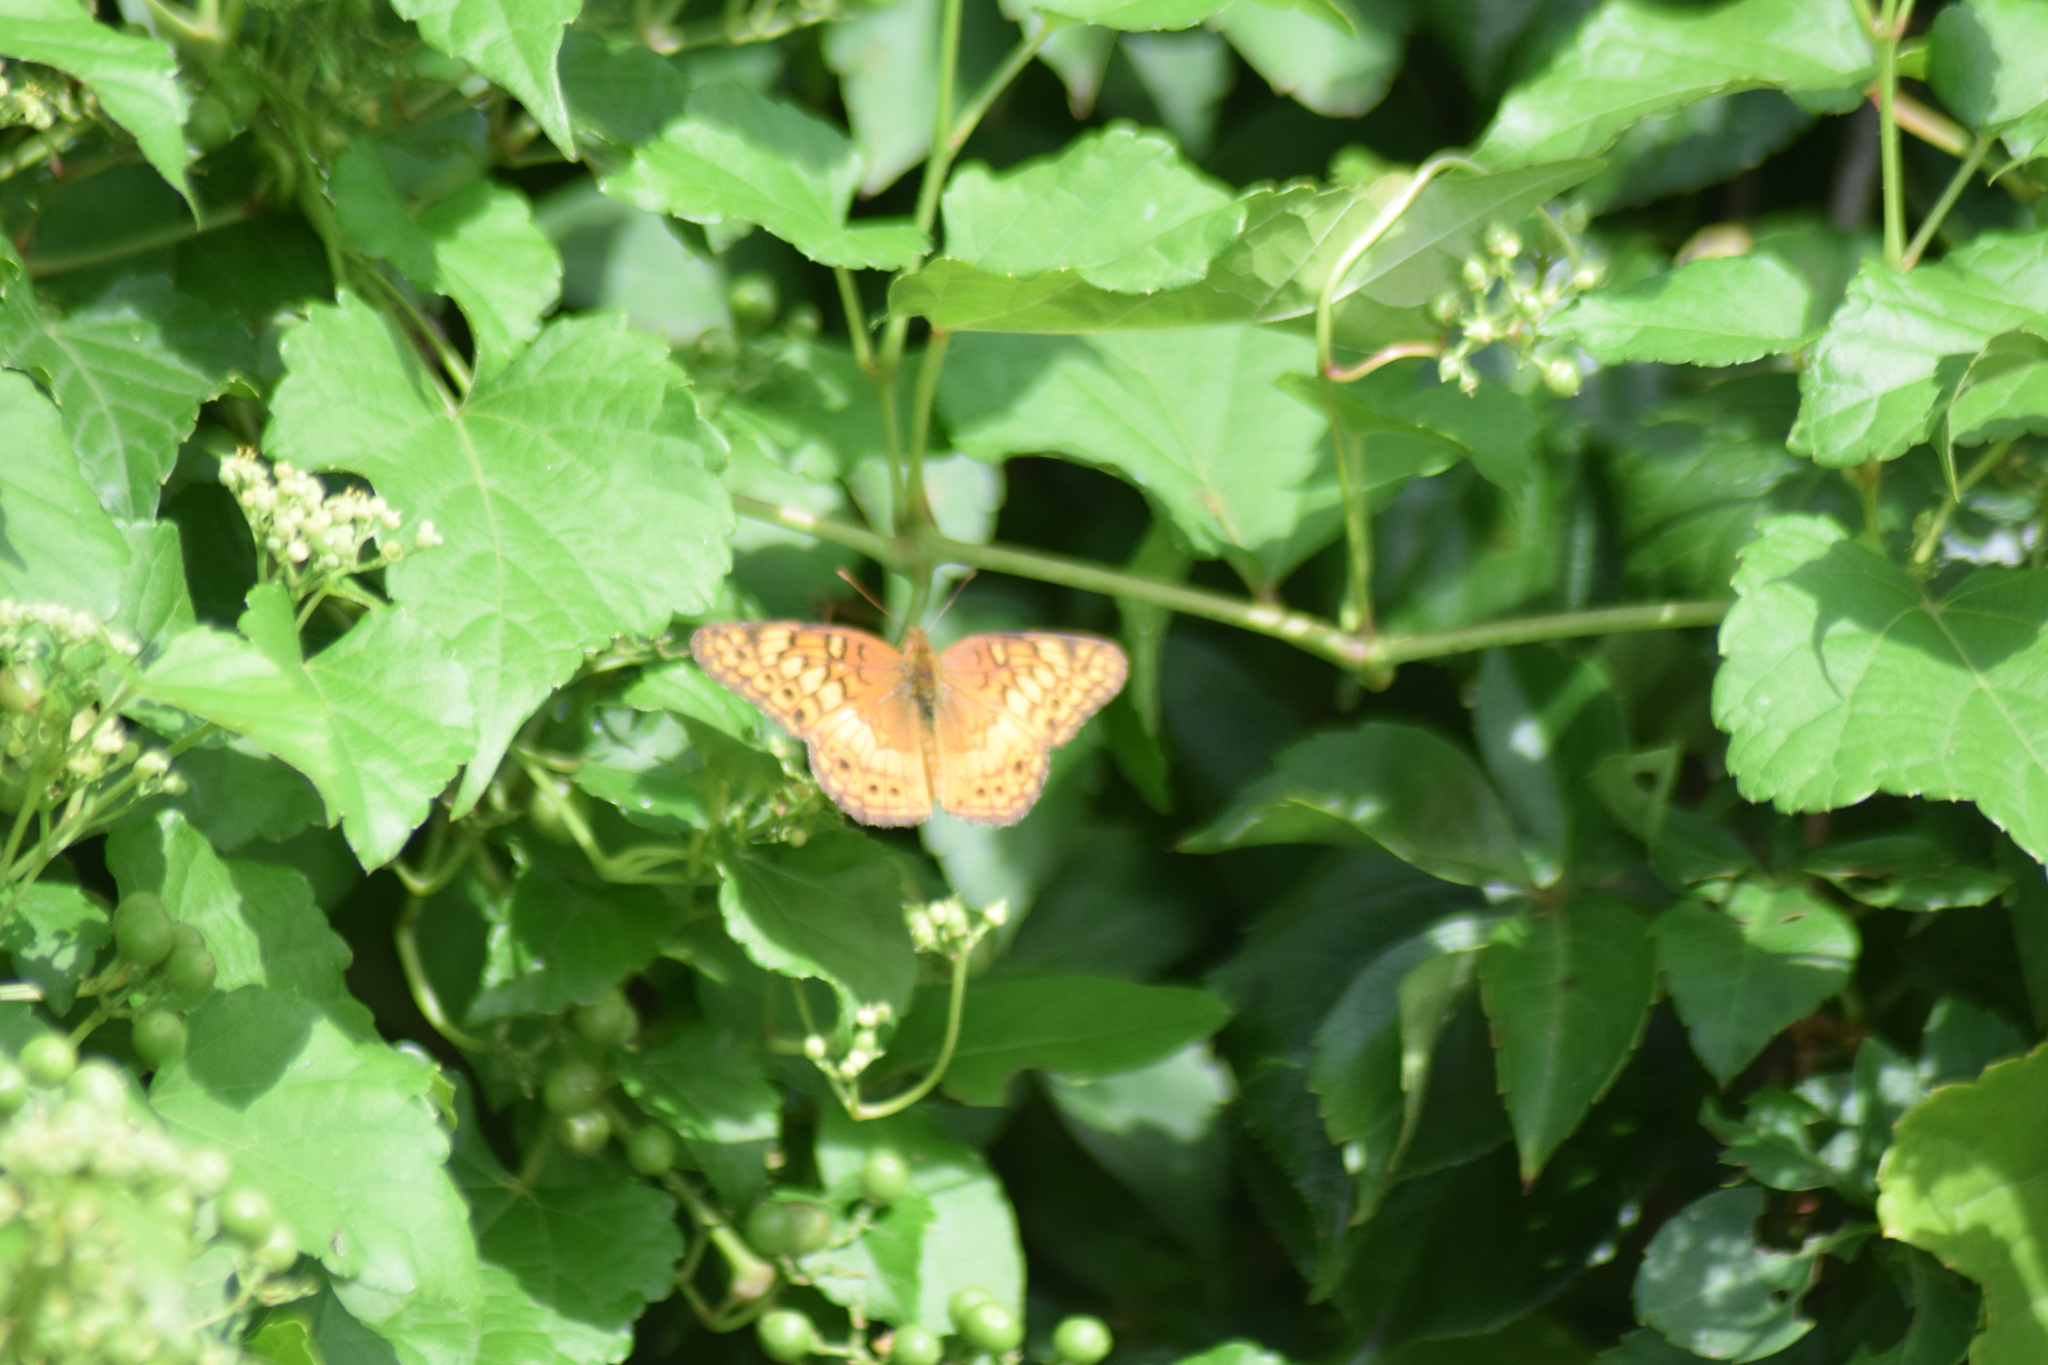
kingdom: Animalia
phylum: Arthropoda
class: Insecta
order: Lepidoptera
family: Nymphalidae
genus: Euptoieta
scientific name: Euptoieta claudia
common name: Variegated fritillary
